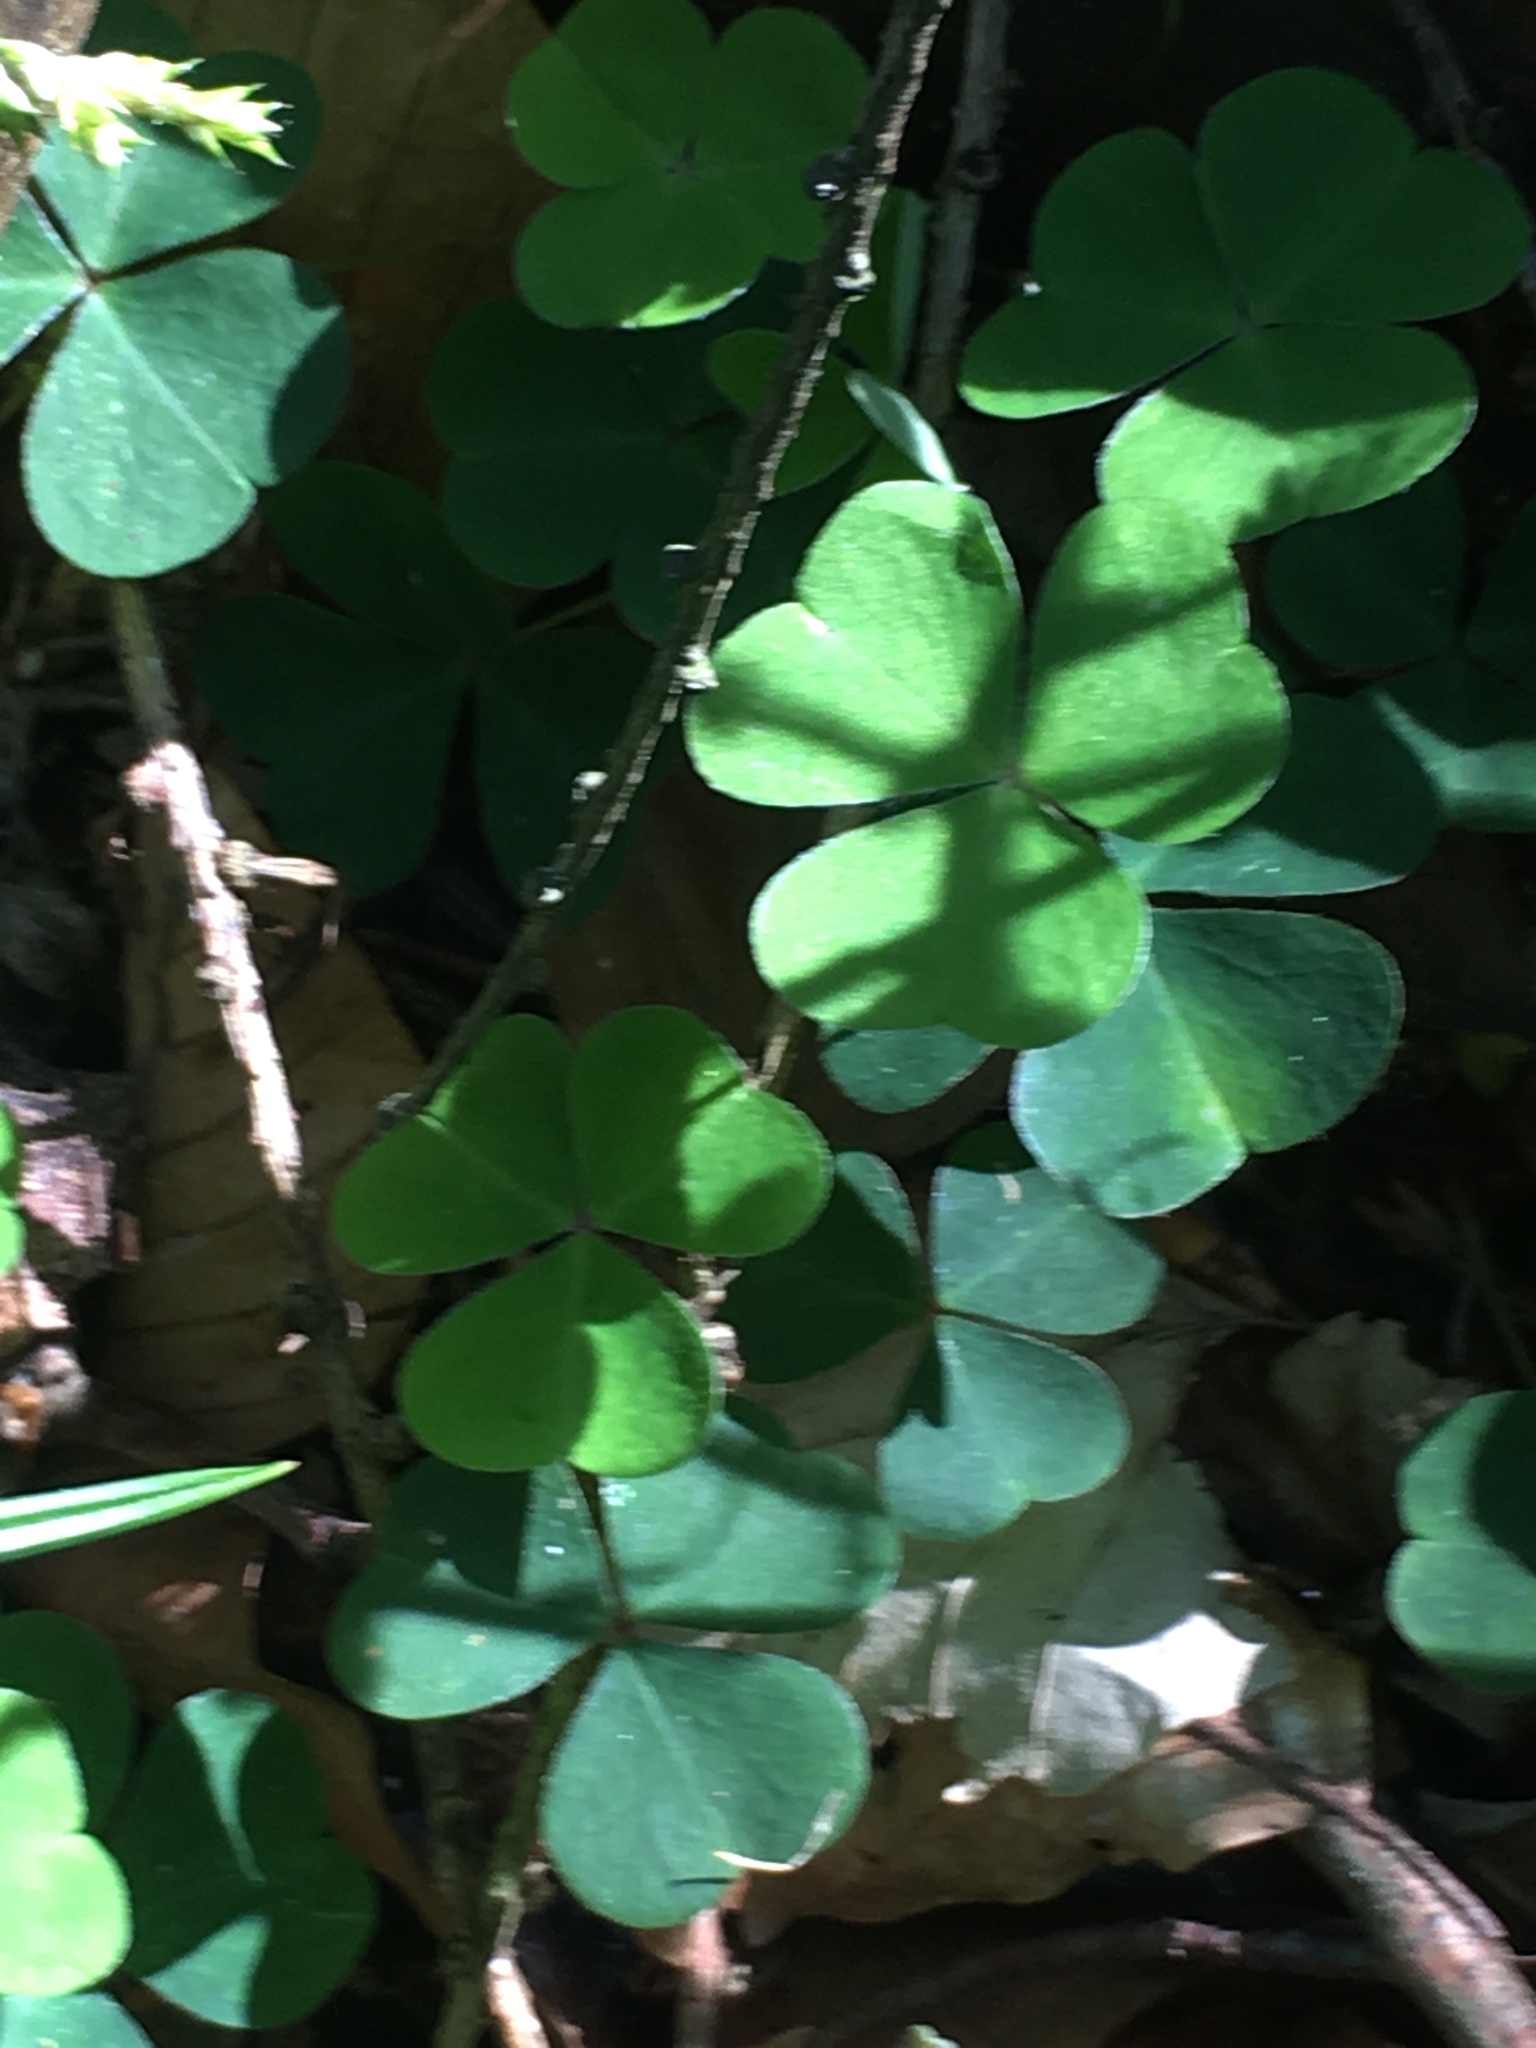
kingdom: Plantae
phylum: Tracheophyta
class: Magnoliopsida
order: Oxalidales
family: Oxalidaceae
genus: Oxalis
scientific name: Oxalis acetosella
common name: Wood-sorrel
